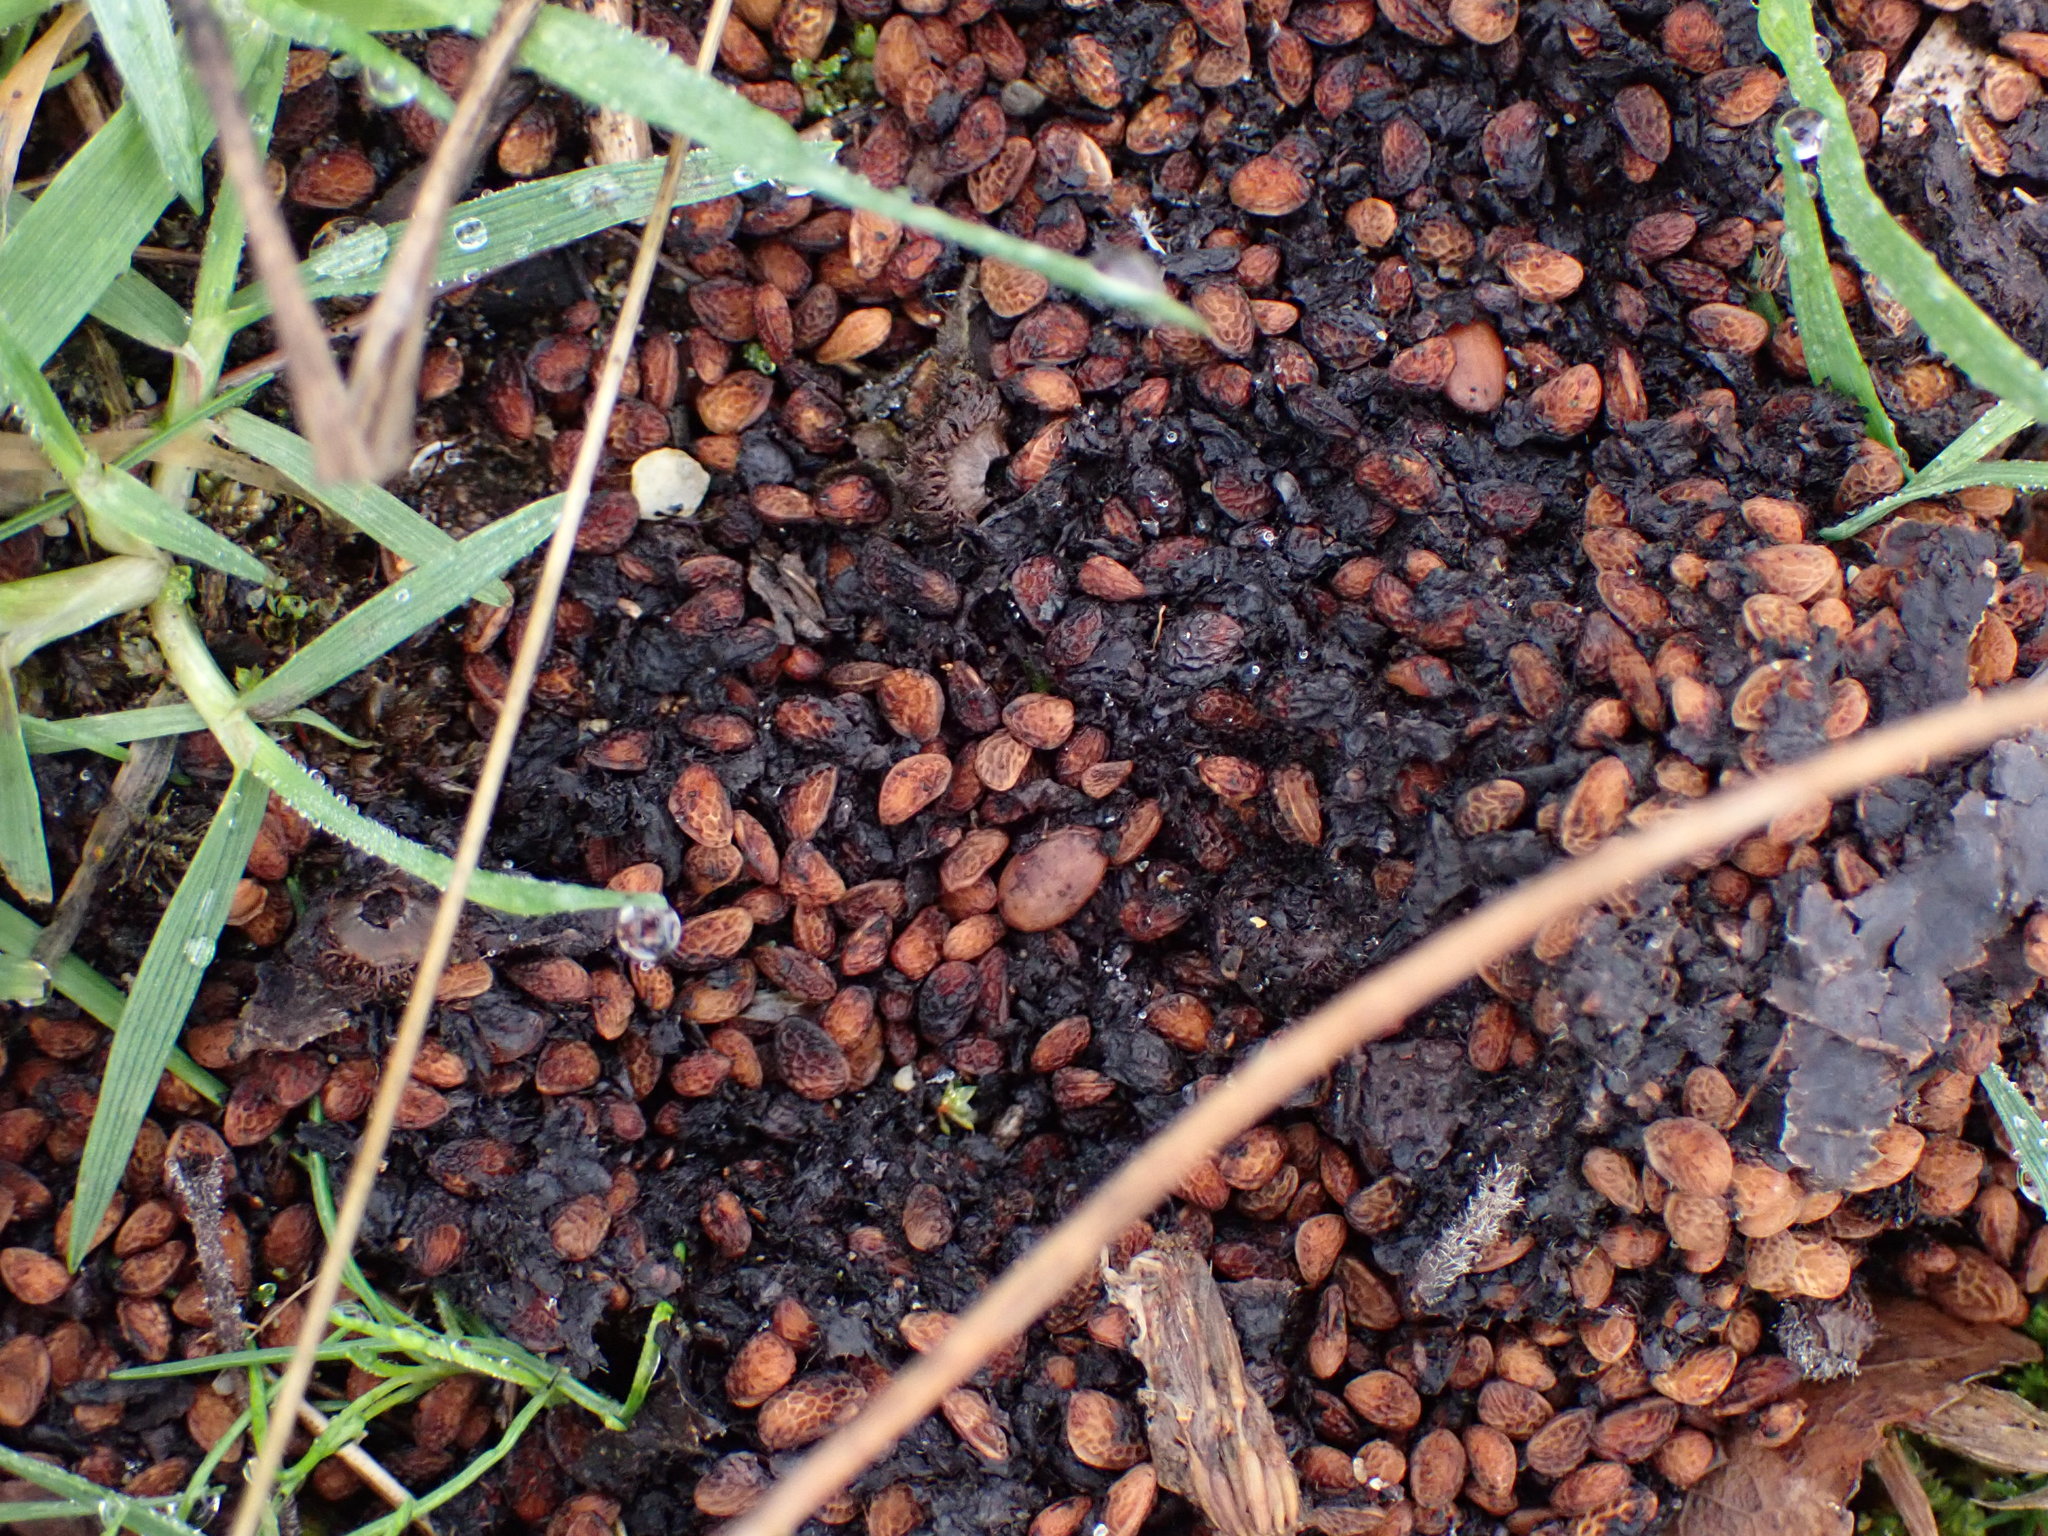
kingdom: Animalia
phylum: Chordata
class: Mammalia
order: Carnivora
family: Ursidae
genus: Ursus
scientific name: Ursus americanus
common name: American black bear
